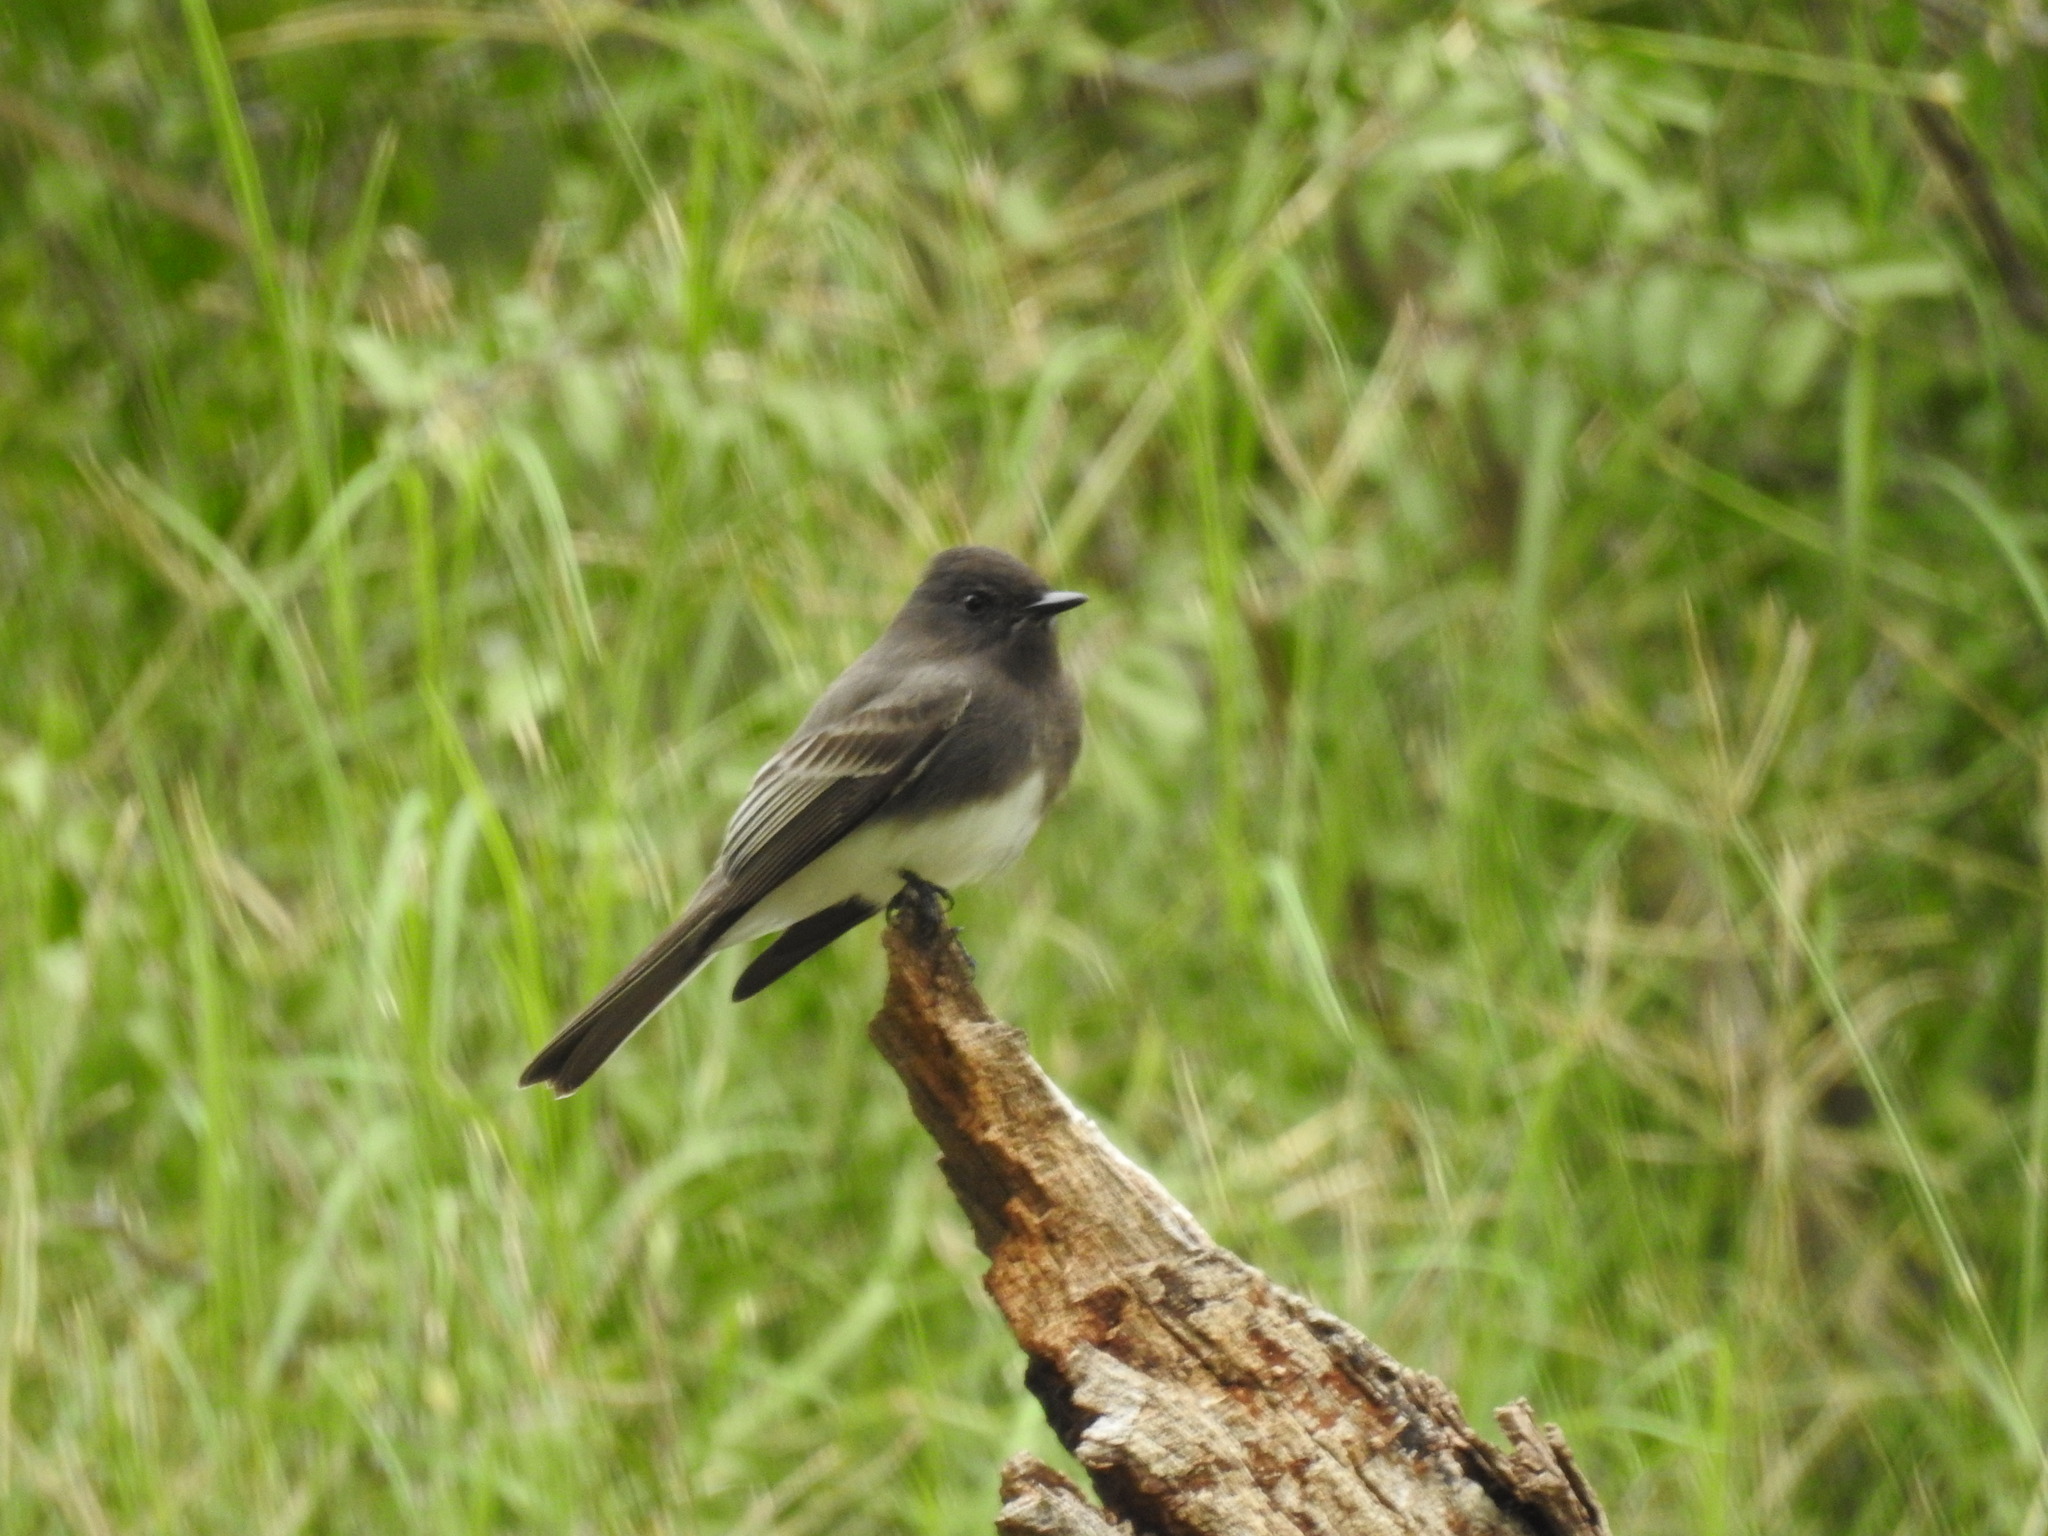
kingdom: Animalia
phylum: Chordata
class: Aves
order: Passeriformes
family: Tyrannidae
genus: Sayornis
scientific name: Sayornis nigricans
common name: Black phoebe
